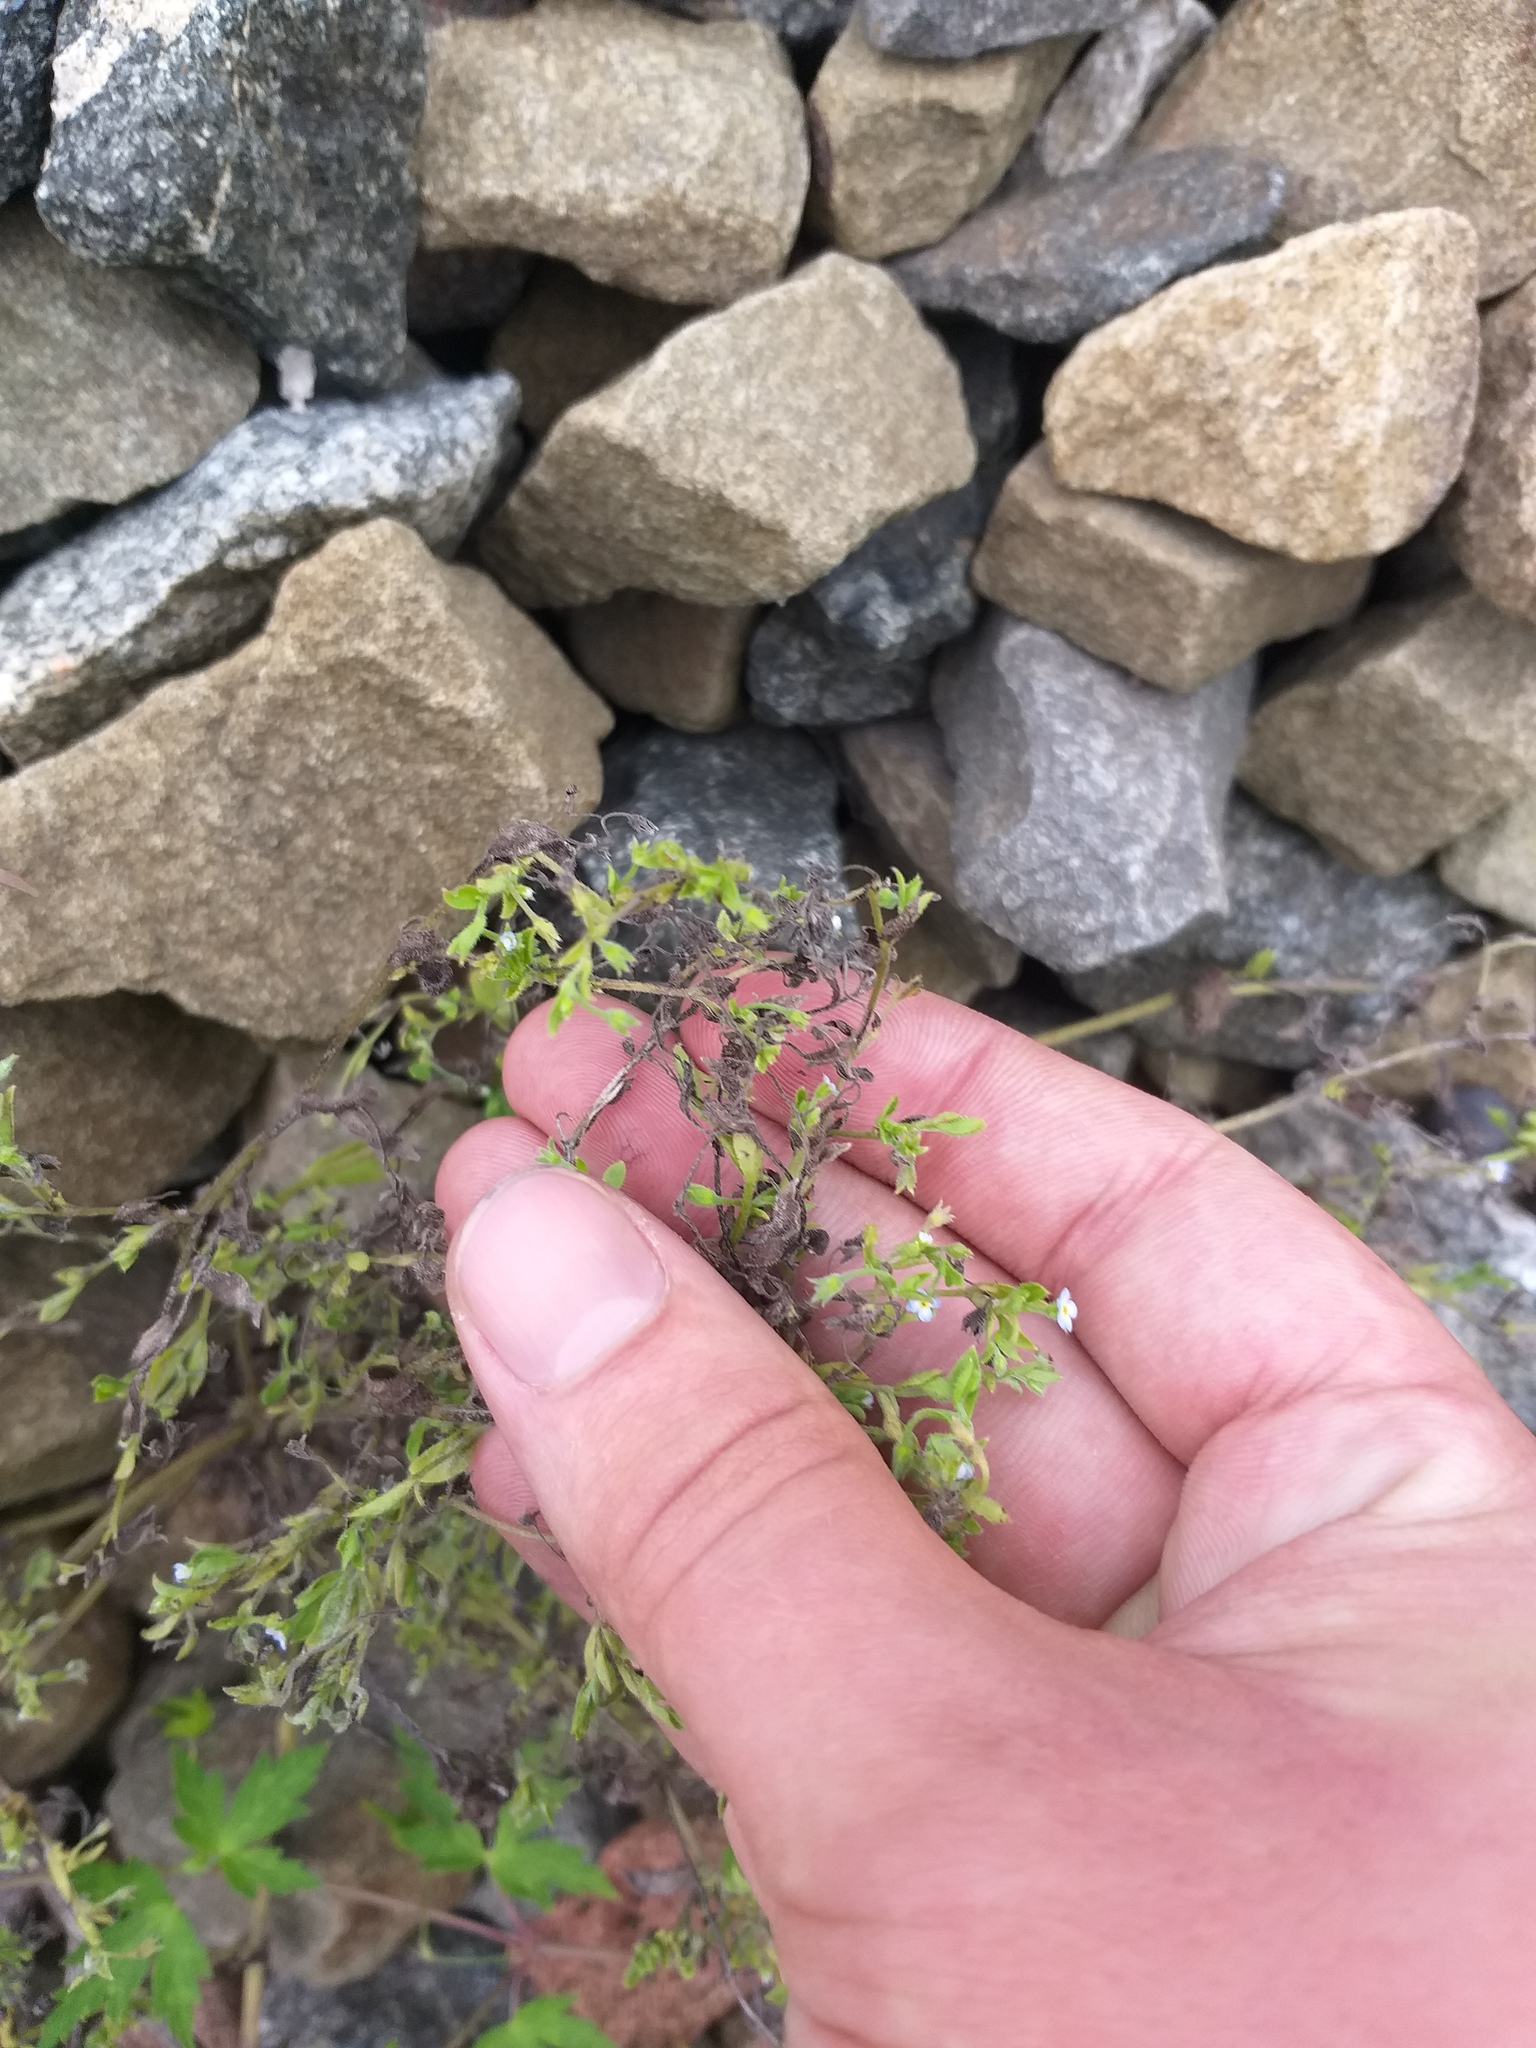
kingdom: Plantae
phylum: Tracheophyta
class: Magnoliopsida
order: Boraginales
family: Boraginaceae
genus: Myosotis
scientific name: Myosotis sparsiflora
